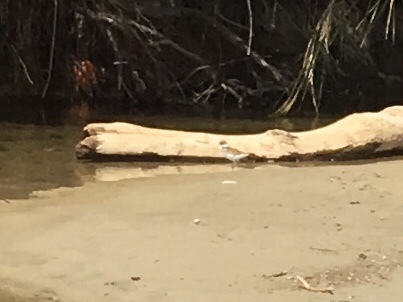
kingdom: Animalia
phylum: Chordata
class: Aves
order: Charadriiformes
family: Charadriidae
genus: Charadrius
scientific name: Charadrius vociferus
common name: Killdeer
